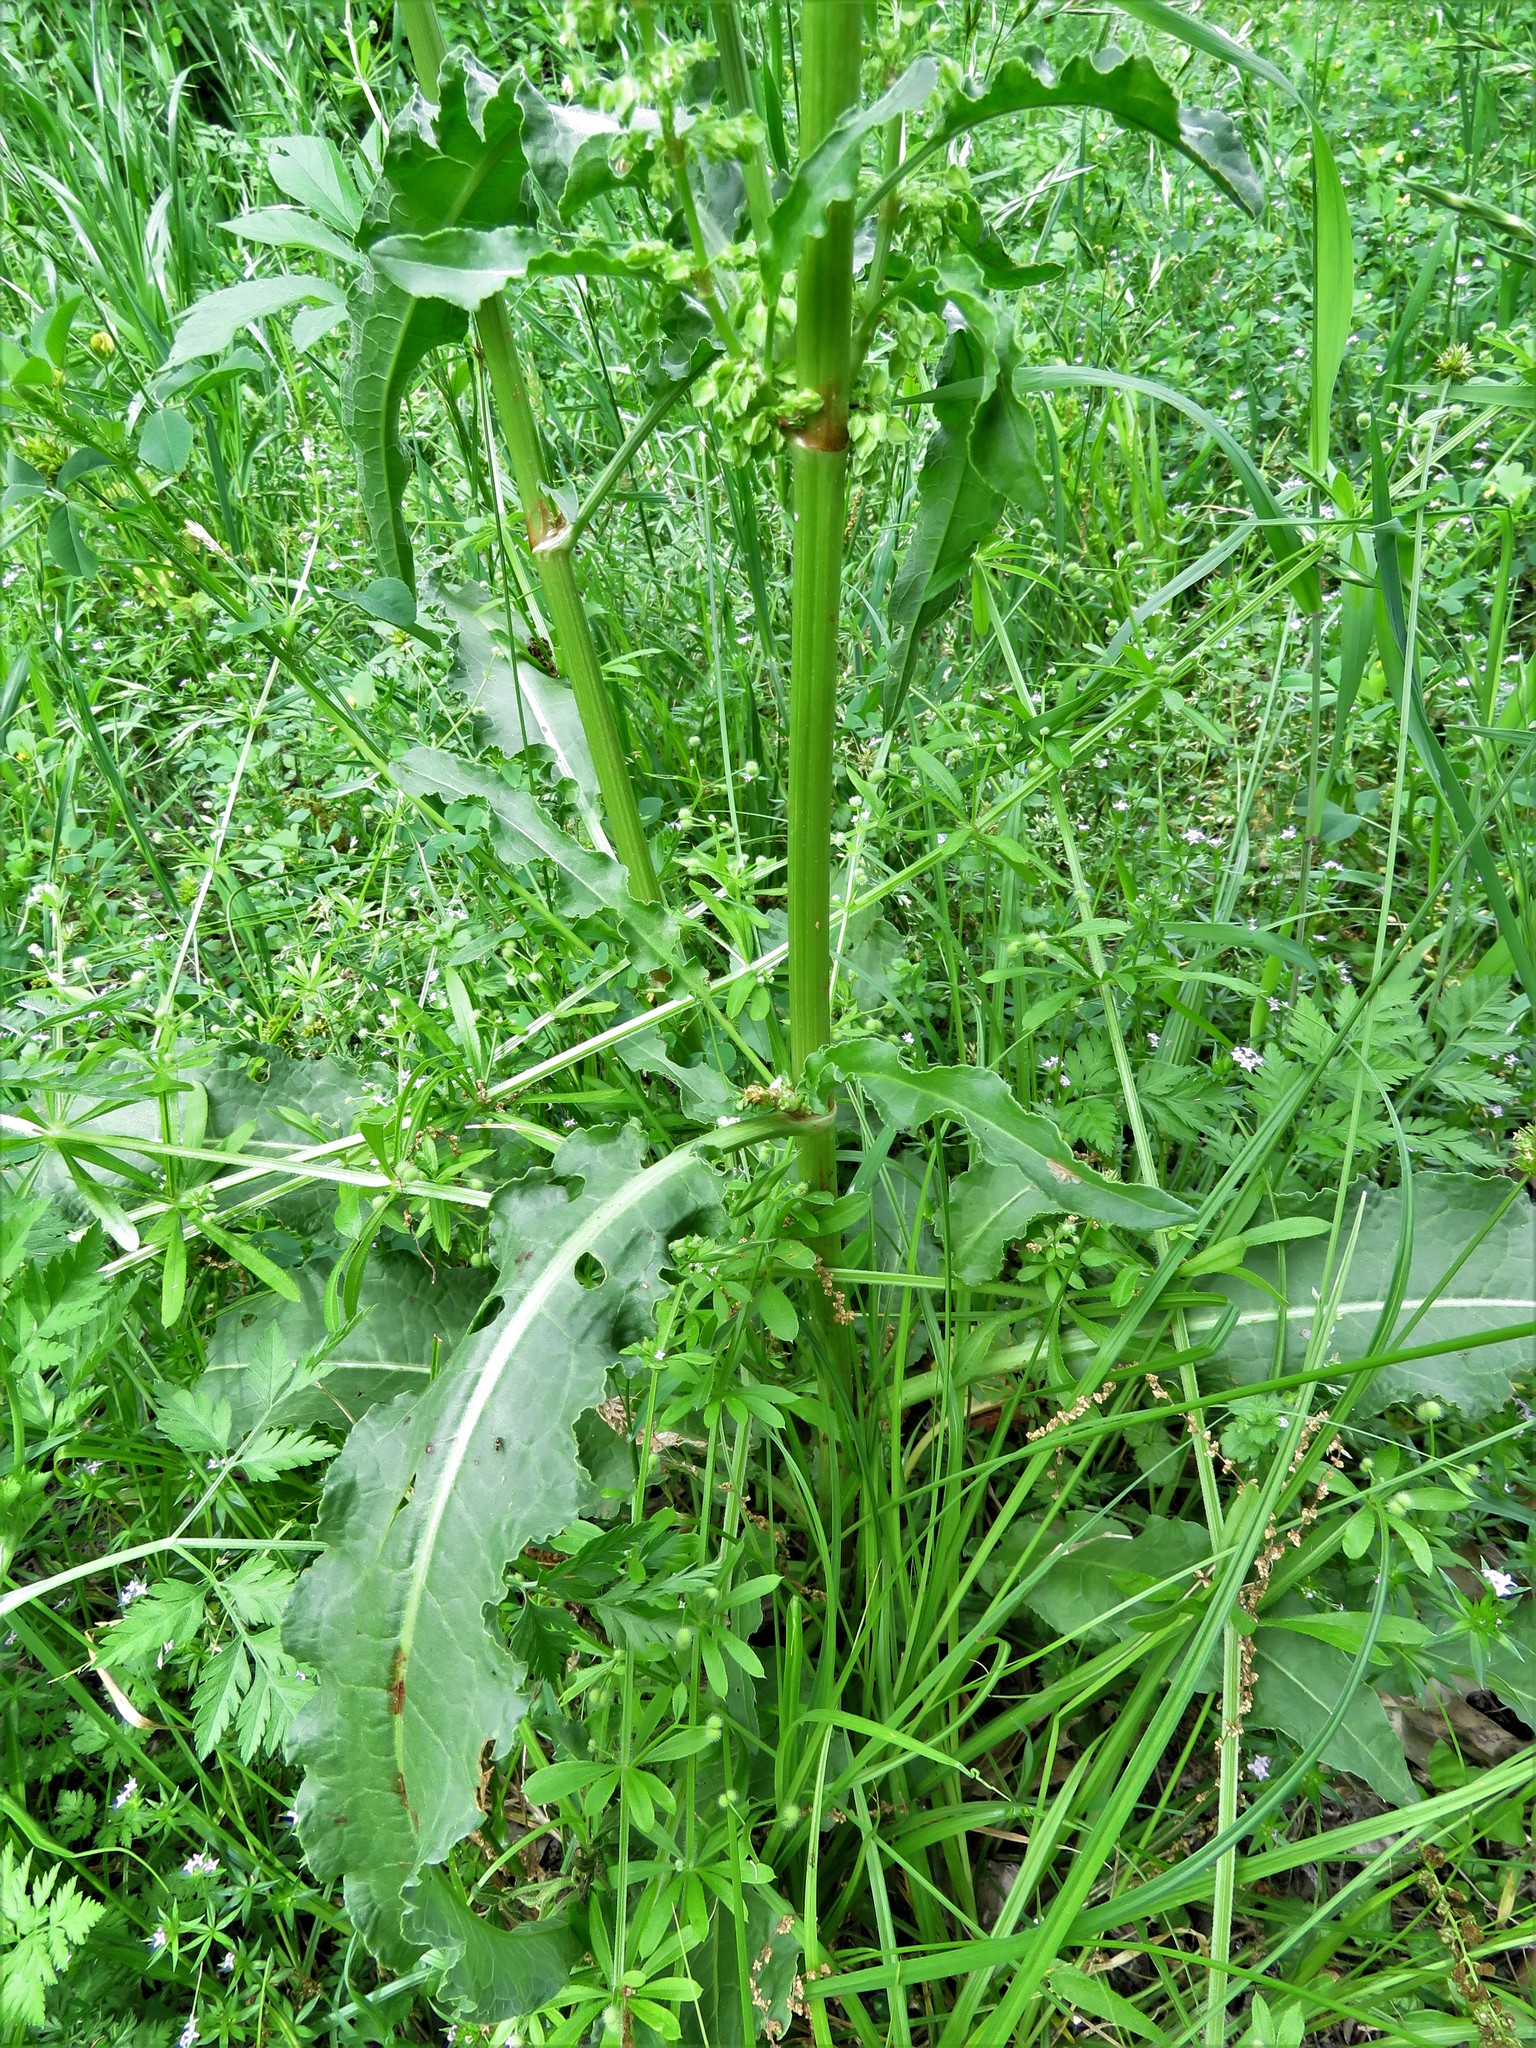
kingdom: Plantae
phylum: Tracheophyta
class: Magnoliopsida
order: Caryophyllales
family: Polygonaceae
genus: Rumex
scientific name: Rumex crispus
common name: Curled dock
